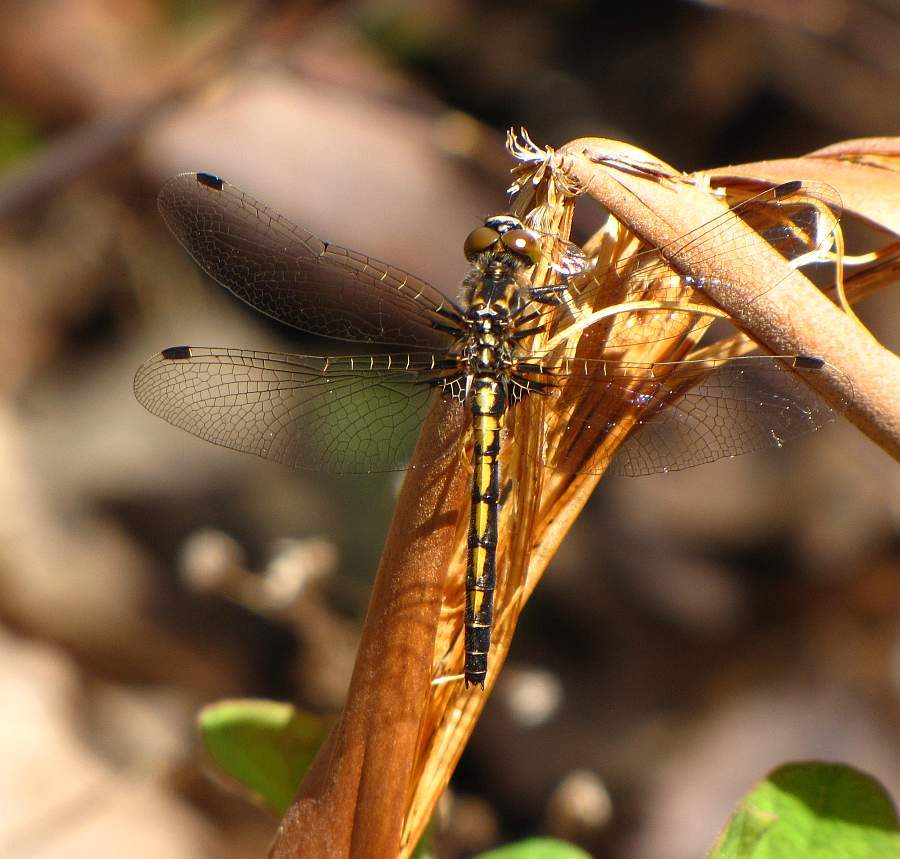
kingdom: Animalia
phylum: Arthropoda
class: Insecta
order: Odonata
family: Libellulidae
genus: Leucorrhinia
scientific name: Leucorrhinia hudsonica
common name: Hudsonian whiteface
